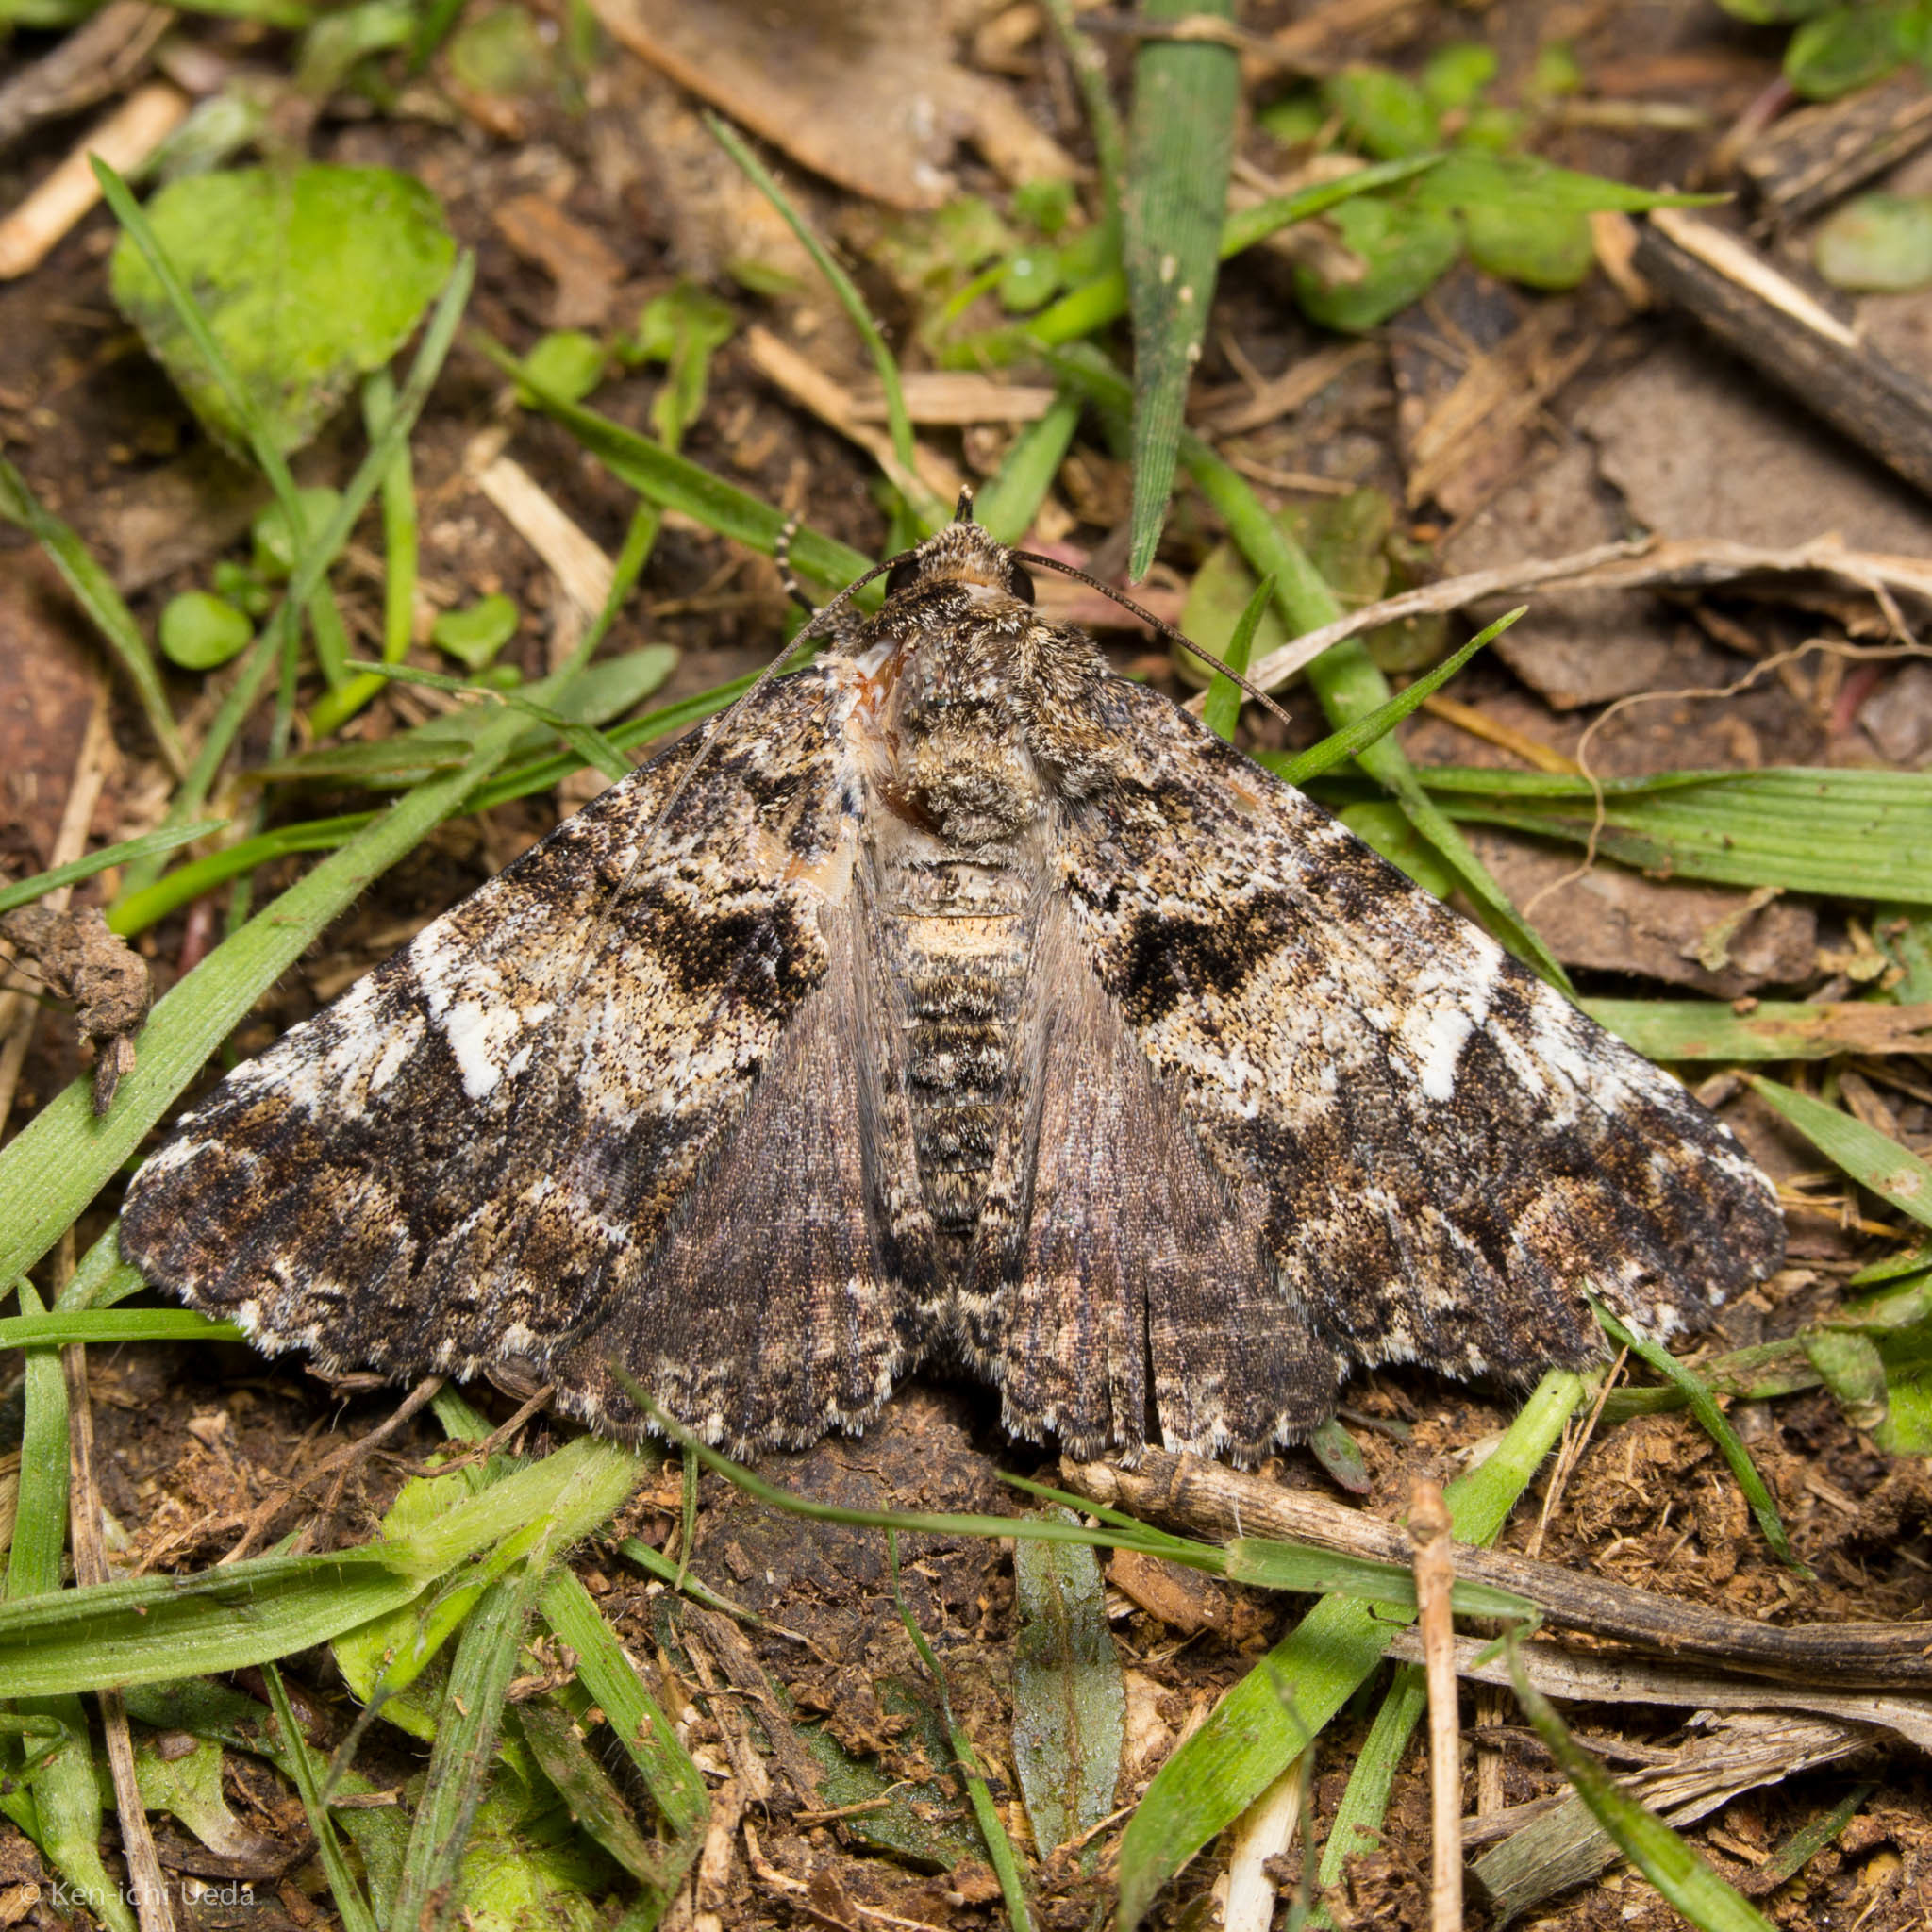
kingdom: Animalia
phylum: Arthropoda
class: Insecta
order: Lepidoptera
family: Erebidae
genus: Metria
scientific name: Metria amella
